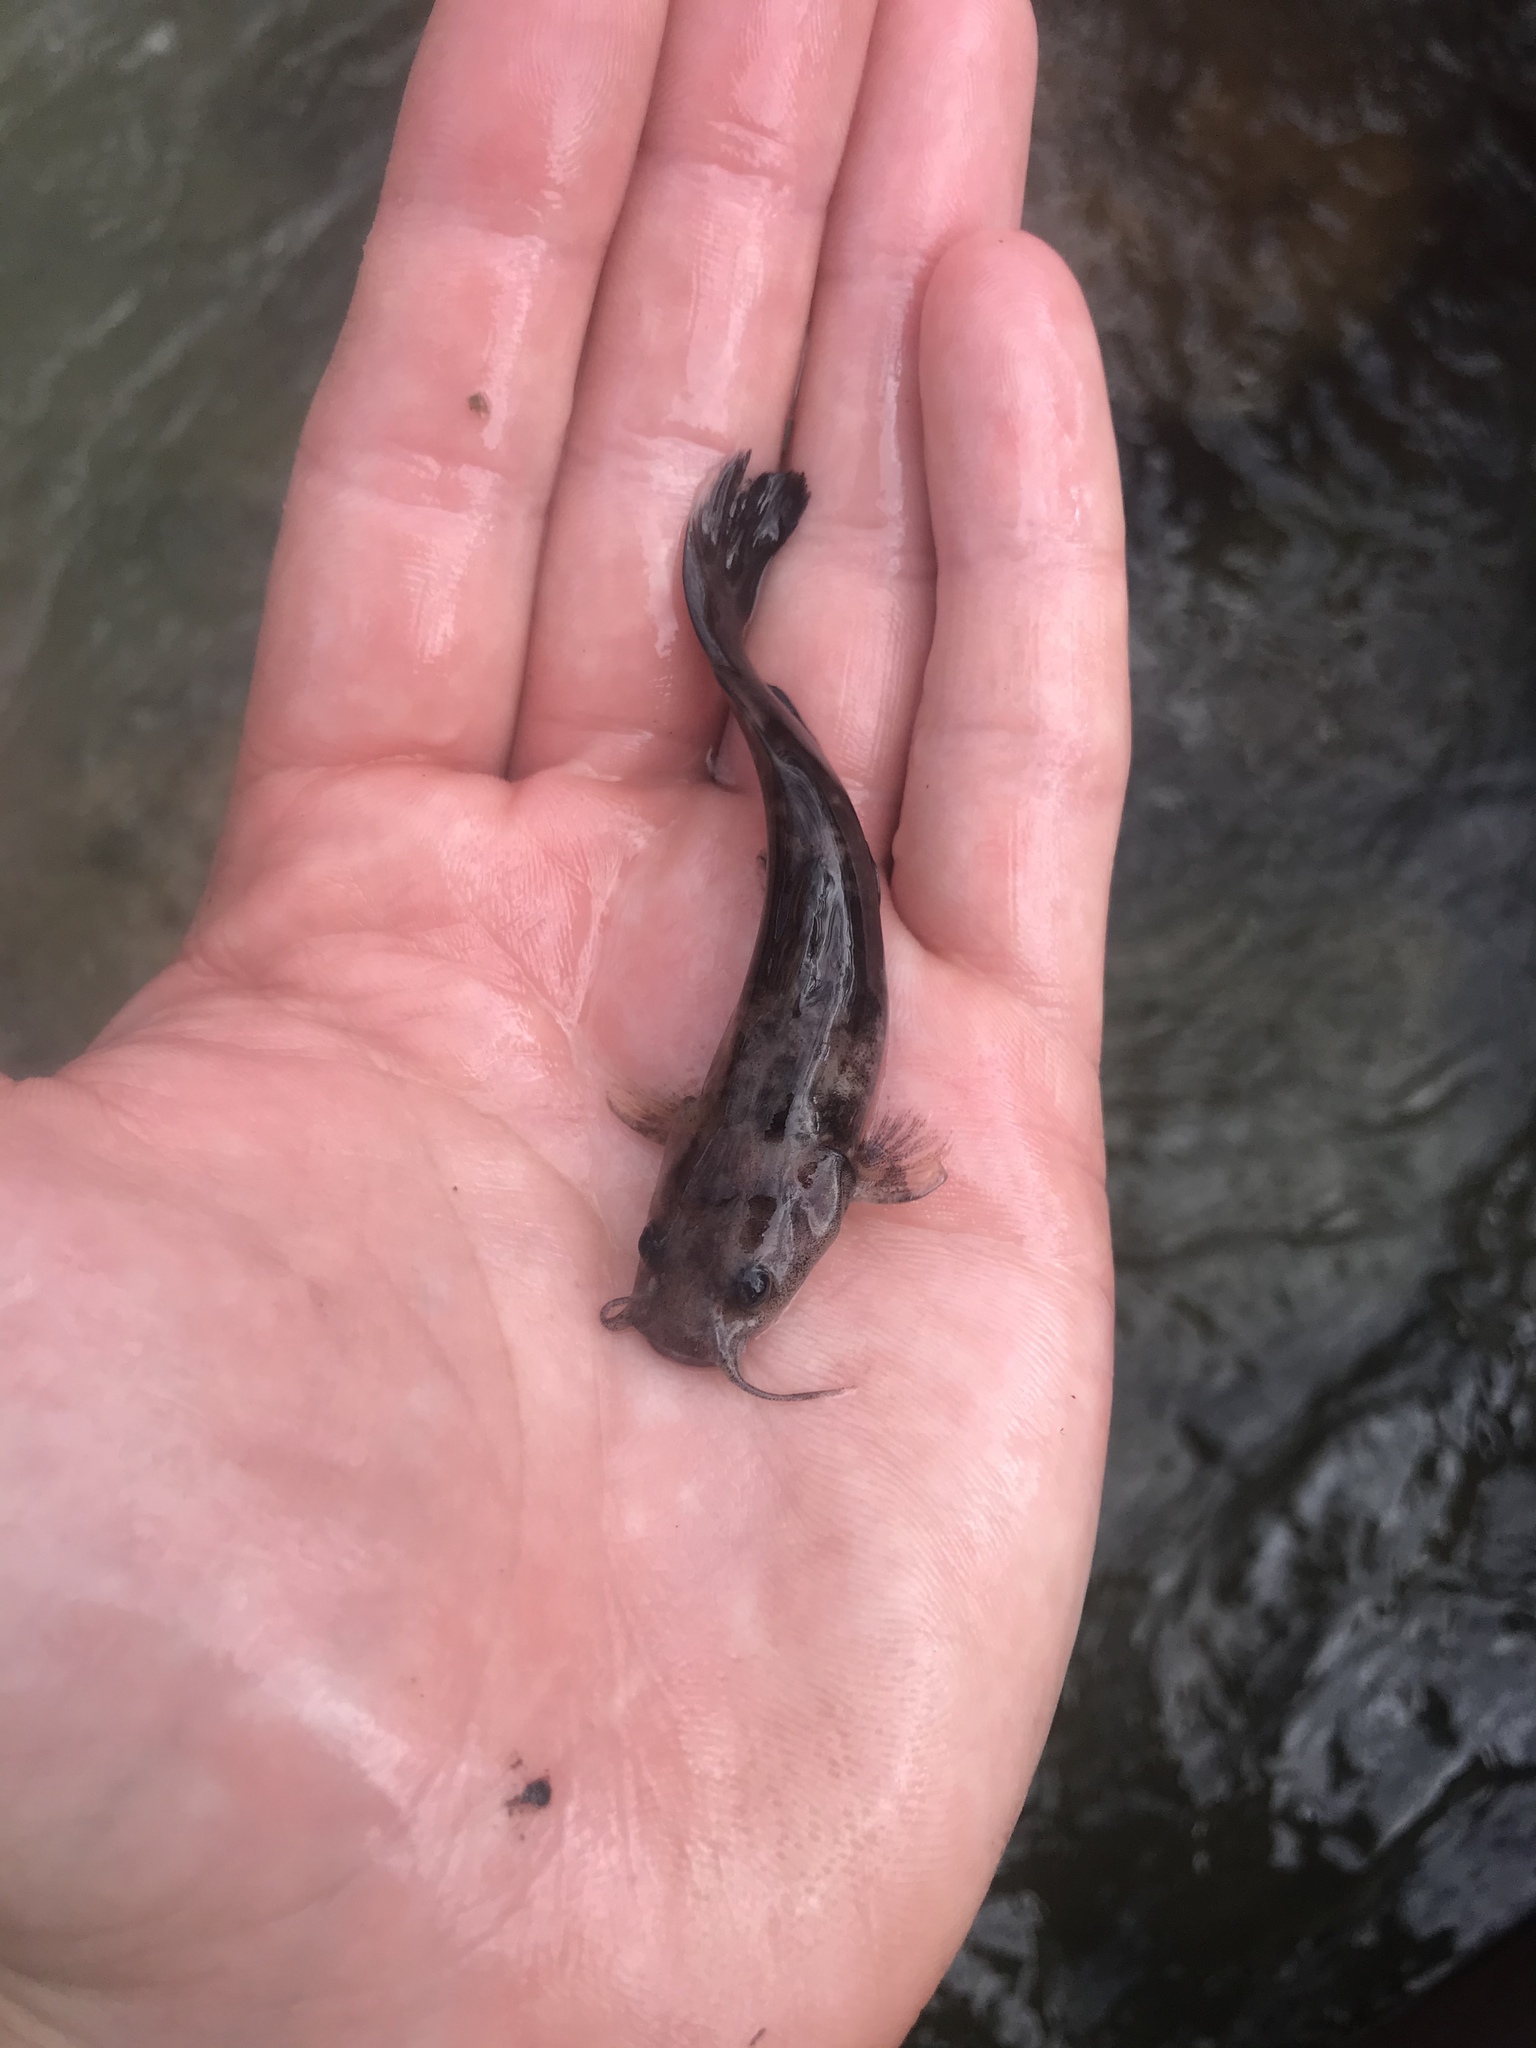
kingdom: Animalia
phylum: Chordata
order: Siluriformes
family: Ictaluridae
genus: Pylodictis
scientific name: Pylodictis olivaris
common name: Flathead catfish
